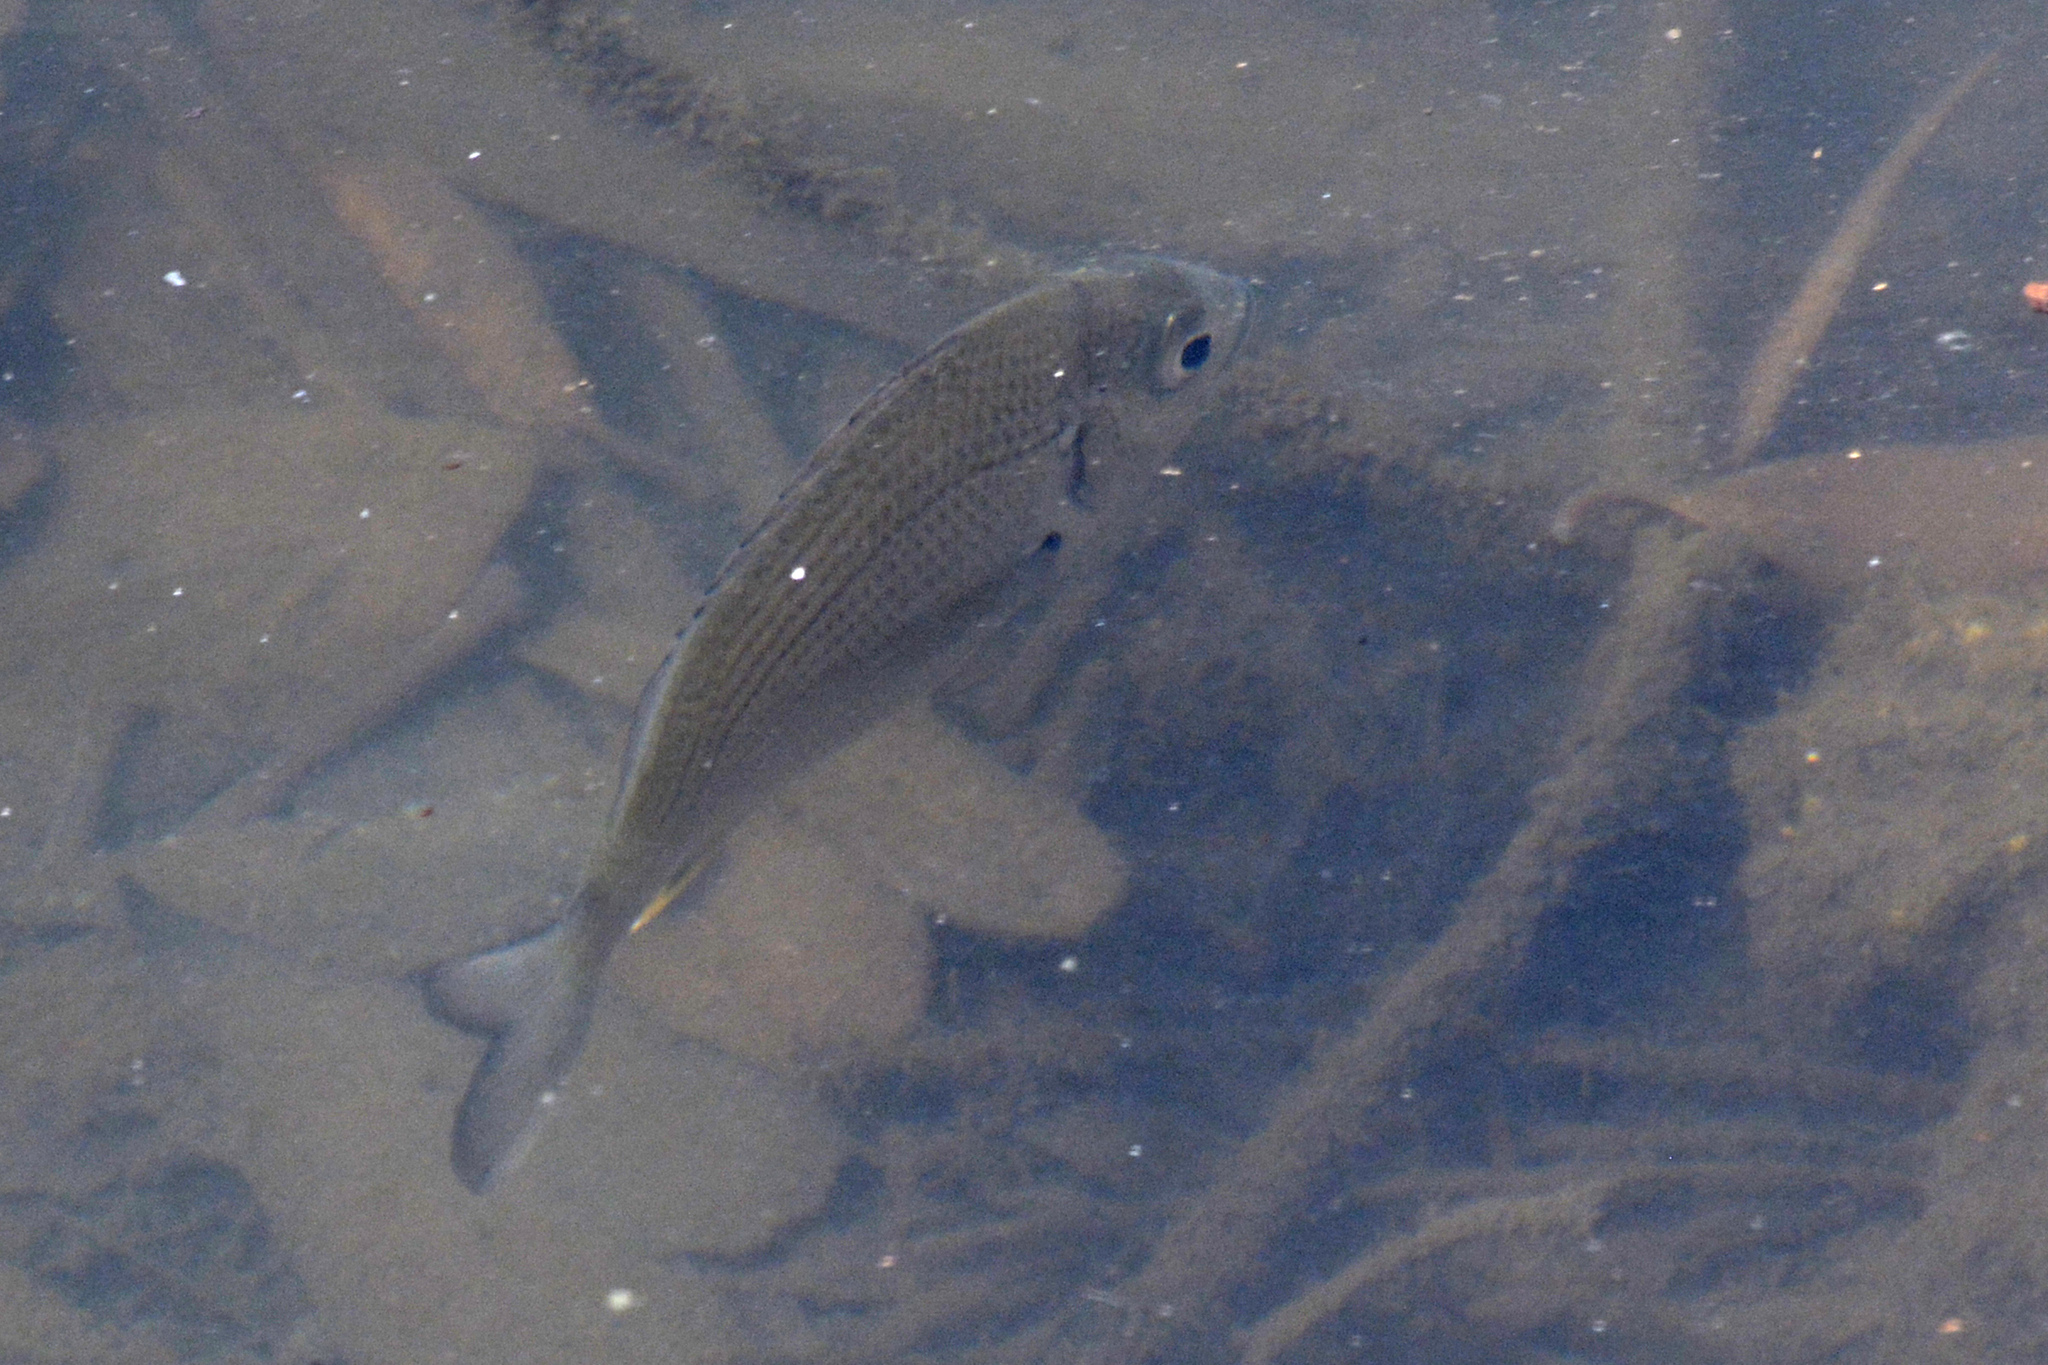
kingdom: Animalia
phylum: Chordata
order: Perciformes
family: Sparidae
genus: Acanthopagrus
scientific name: Acanthopagrus australis
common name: Surf bream
